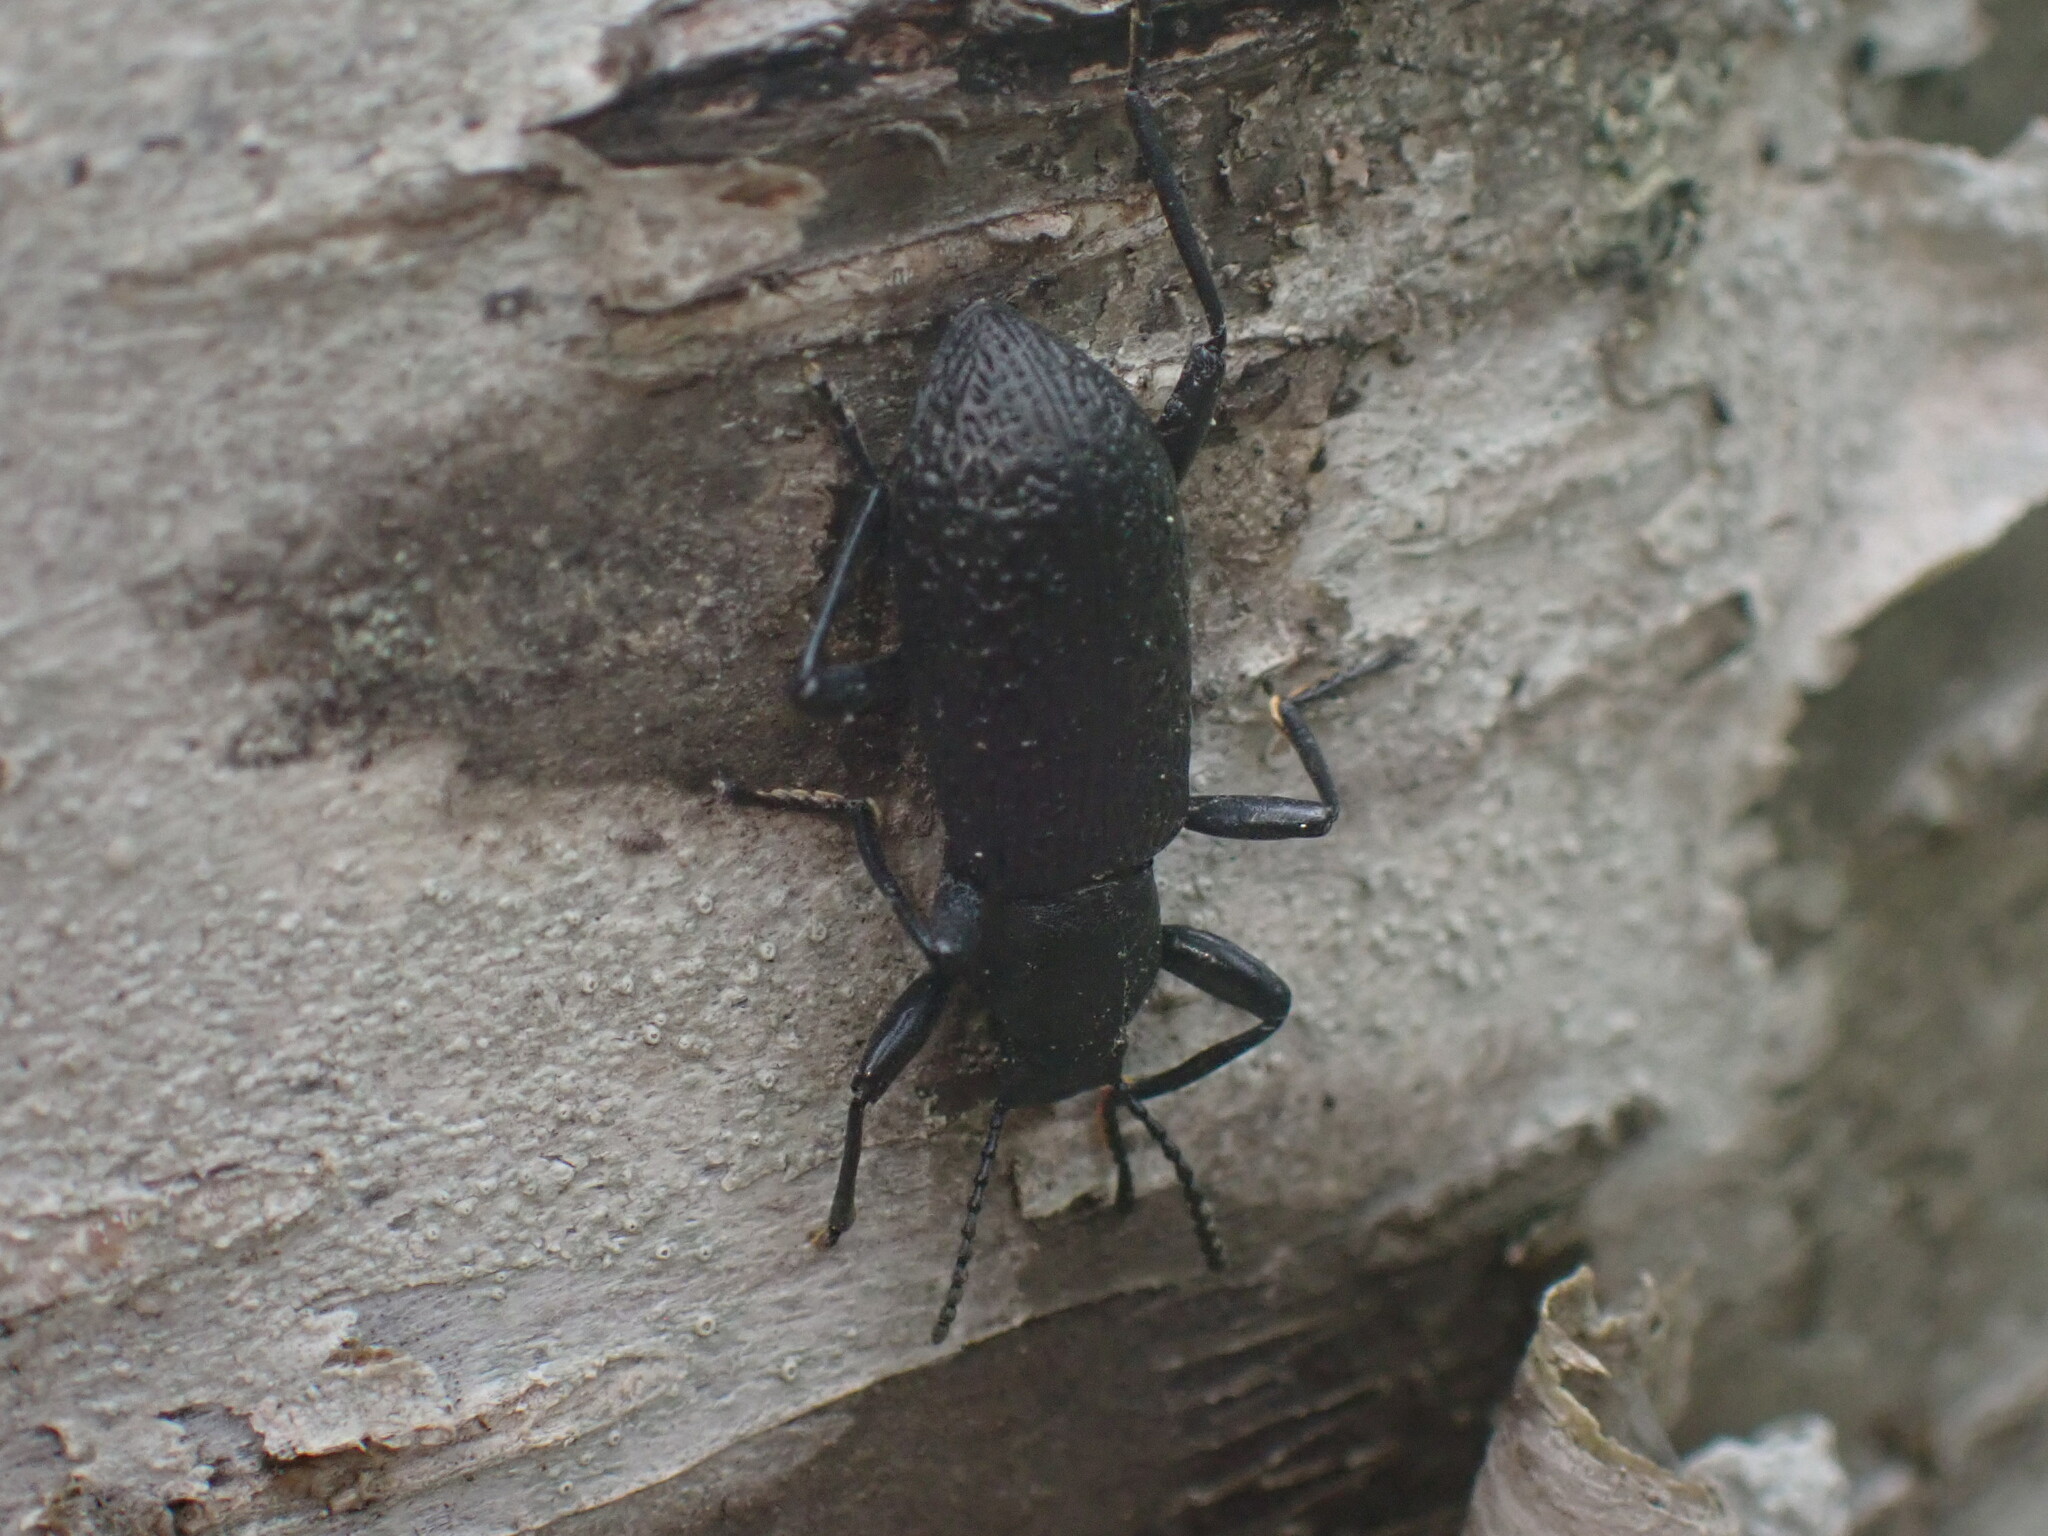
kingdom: Animalia
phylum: Arthropoda
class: Insecta
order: Coleoptera
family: Tenebrionidae
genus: Upis
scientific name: Upis ceramboides
